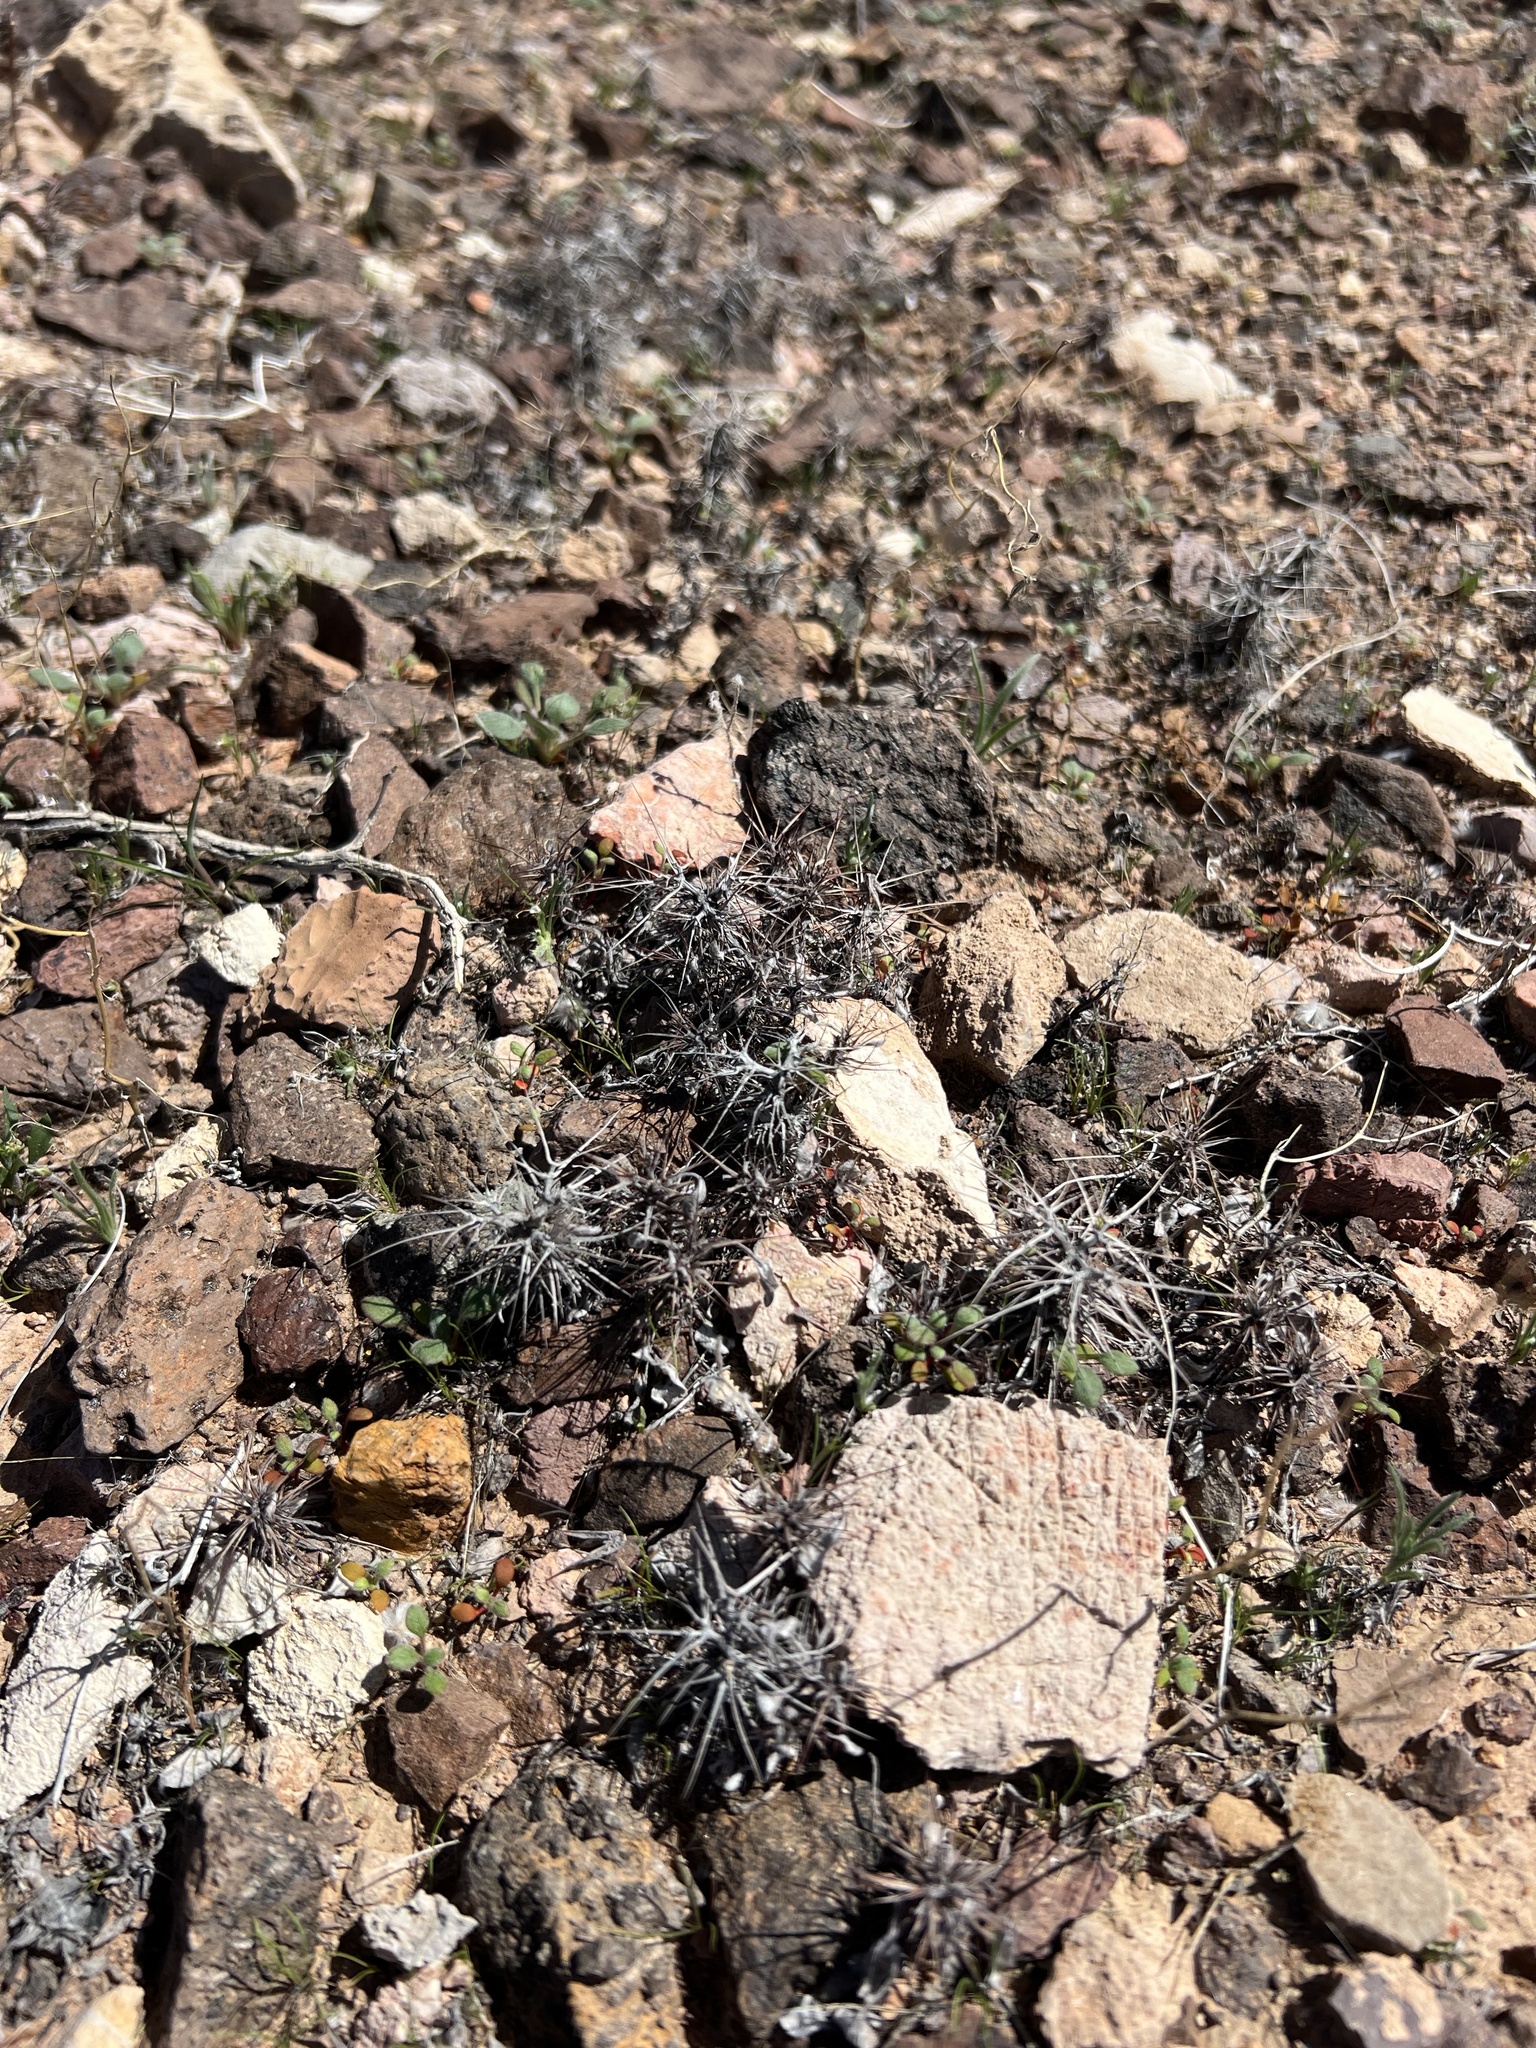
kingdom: Plantae
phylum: Tracheophyta
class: Magnoliopsida
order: Caryophyllales
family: Polygonaceae
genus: Chorizanthe
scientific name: Chorizanthe rigida
